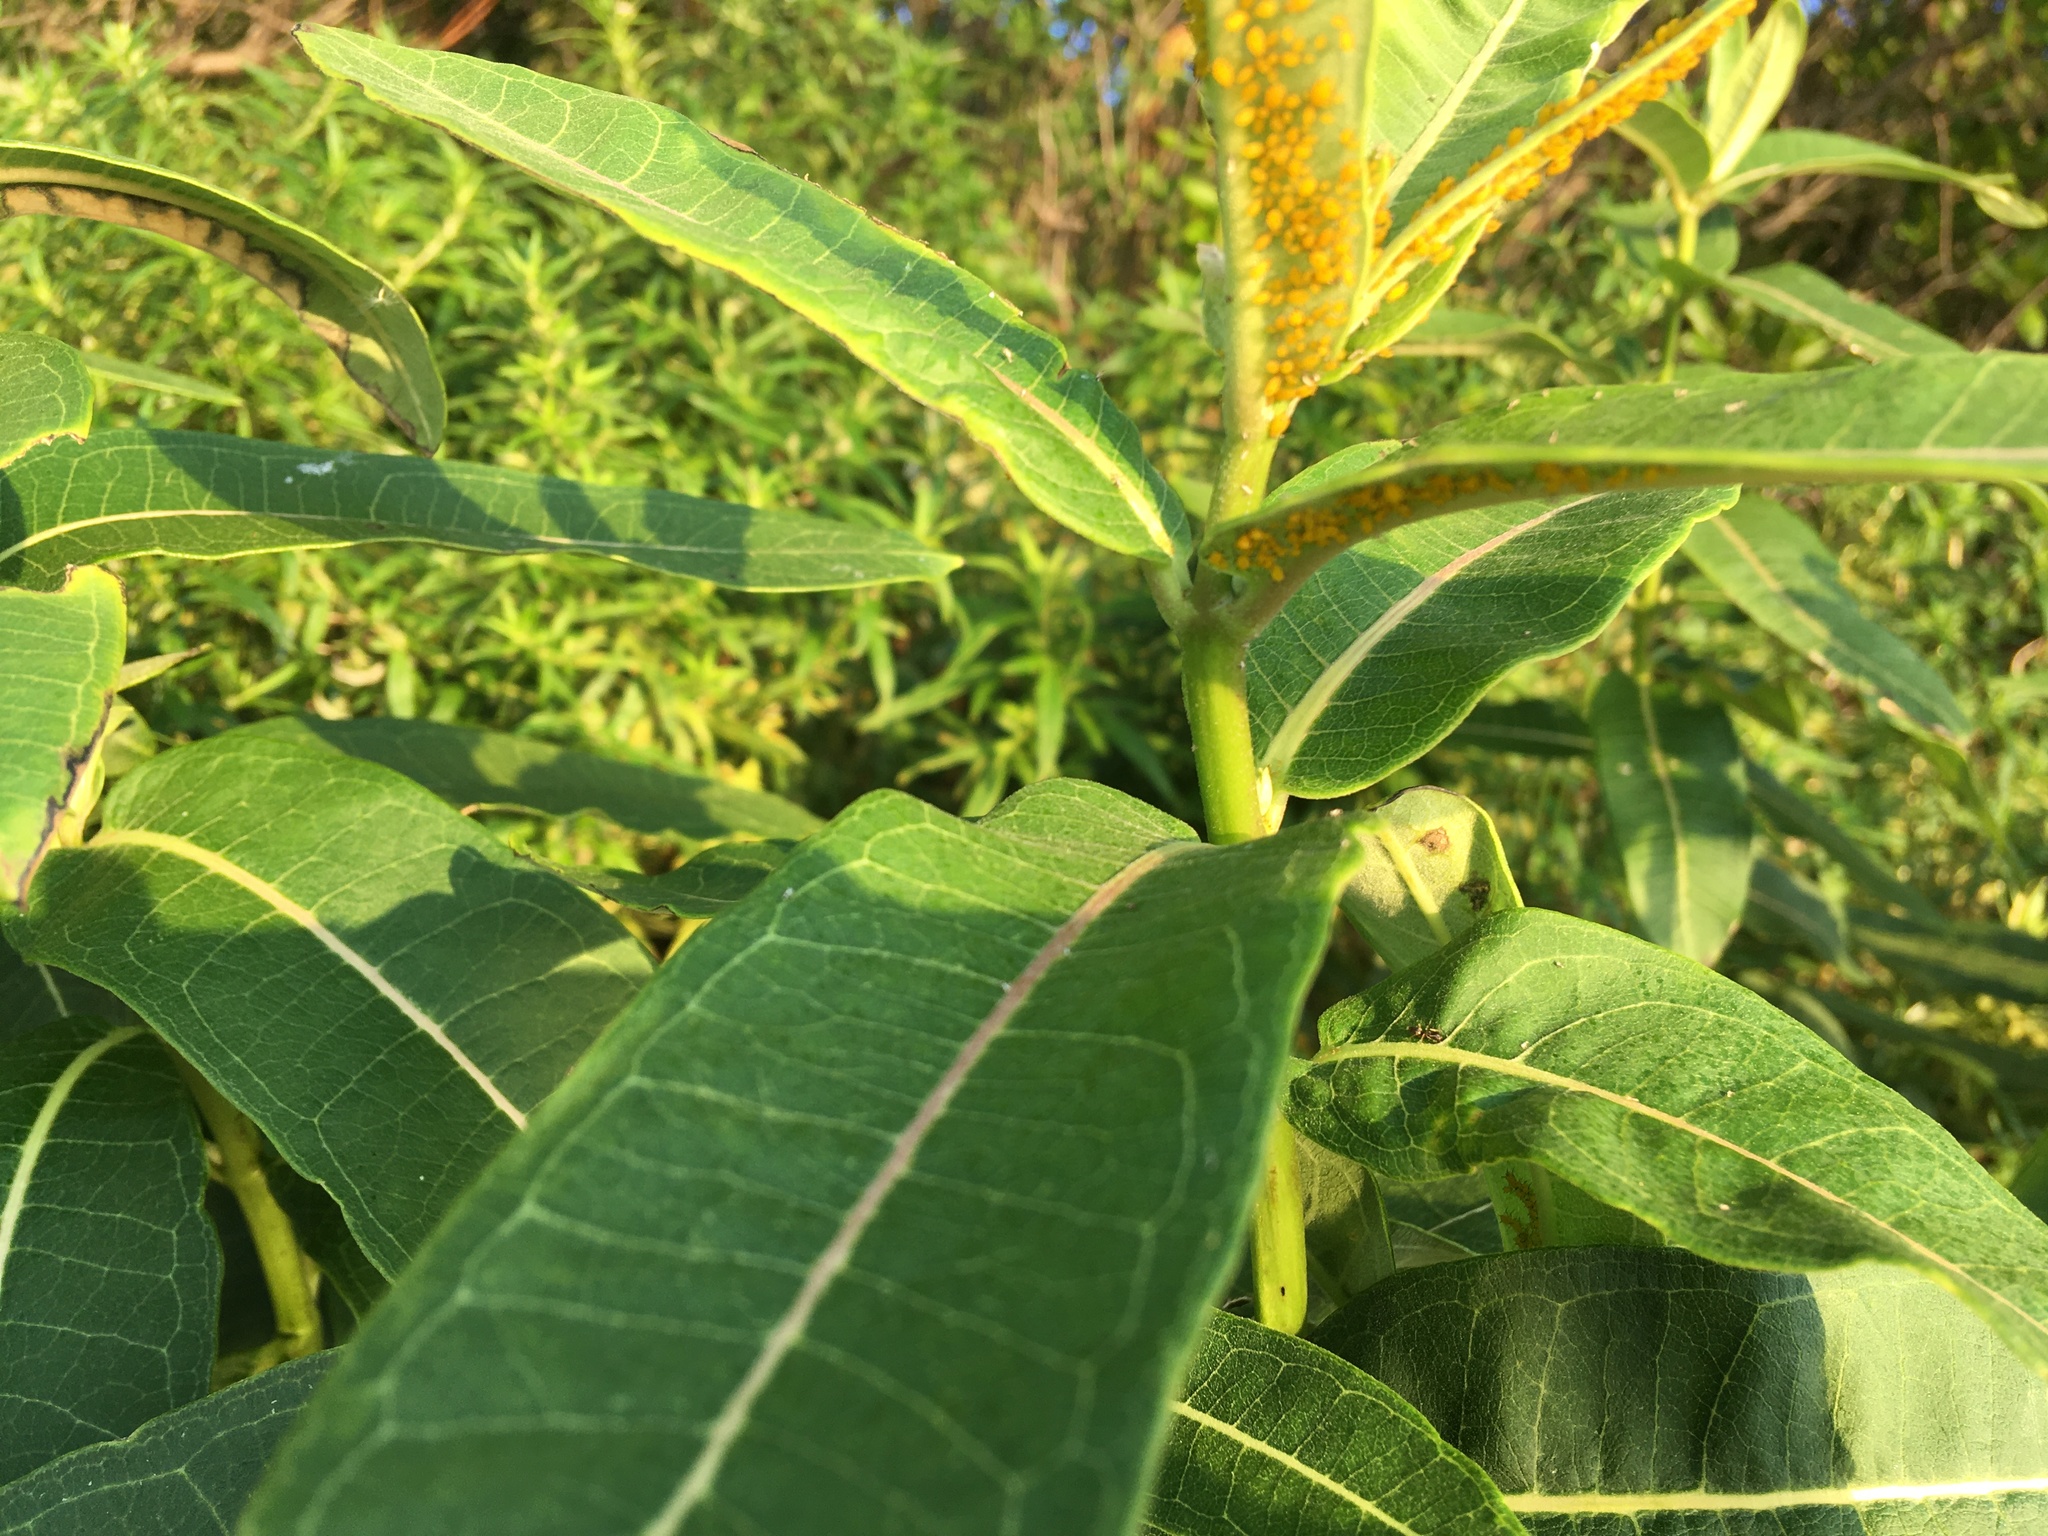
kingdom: Plantae
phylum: Tracheophyta
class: Magnoliopsida
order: Gentianales
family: Apocynaceae
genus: Asclepias
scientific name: Asclepias syriaca
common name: Common milkweed
